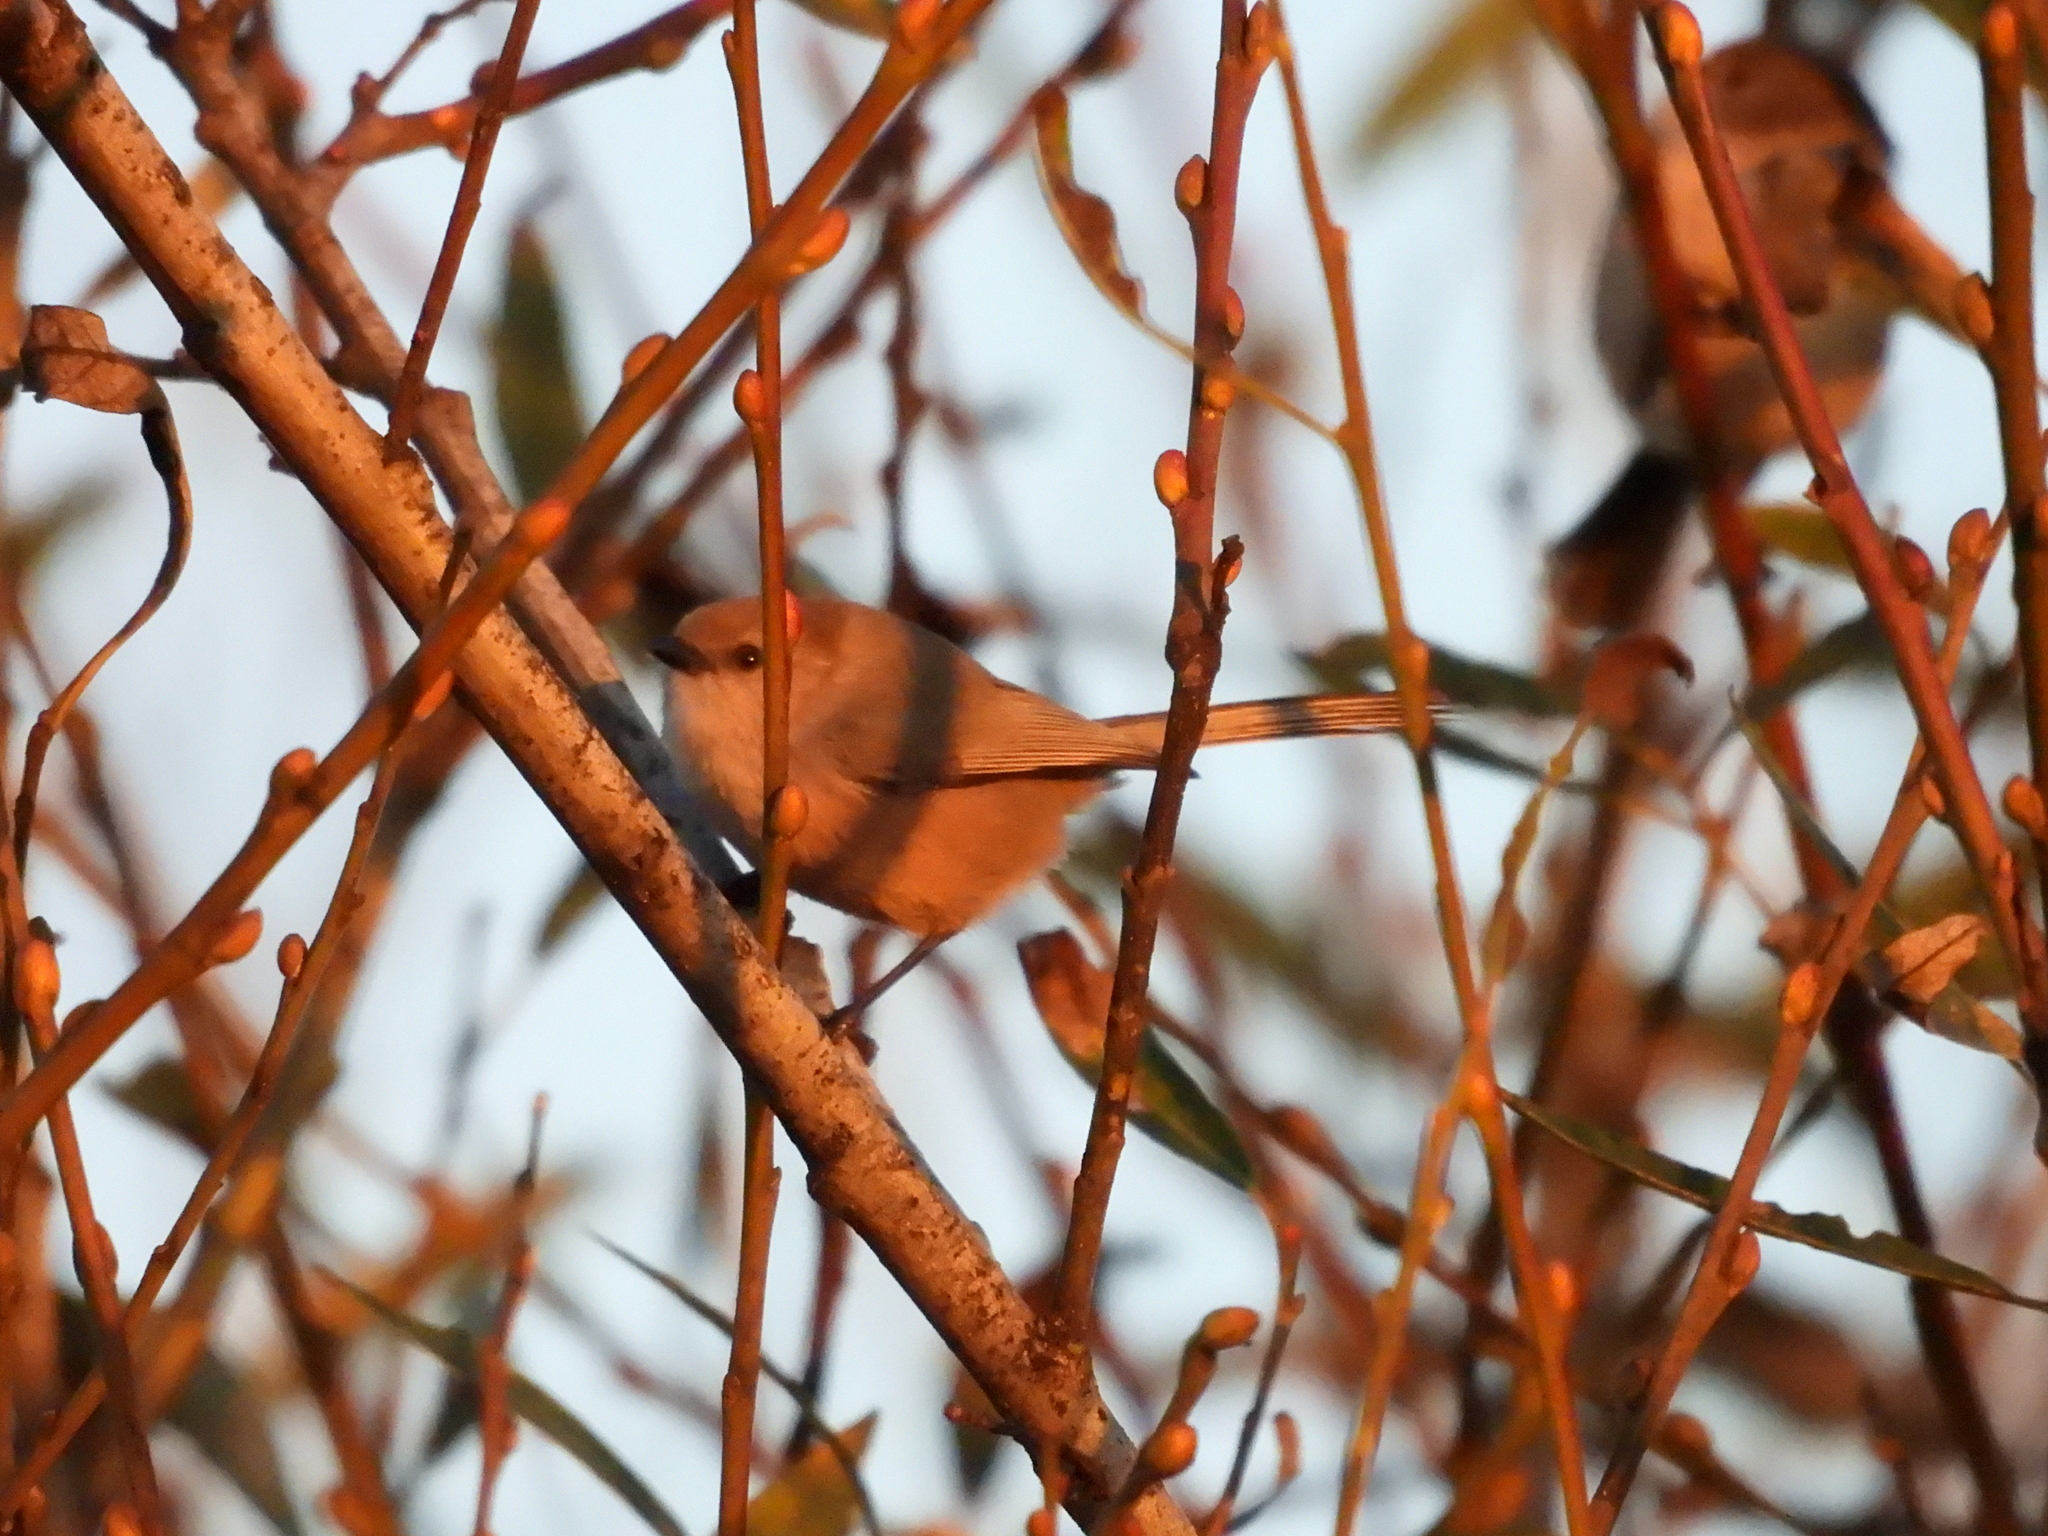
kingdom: Animalia
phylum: Chordata
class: Aves
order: Passeriformes
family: Aegithalidae
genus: Psaltriparus
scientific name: Psaltriparus minimus
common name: American bushtit
